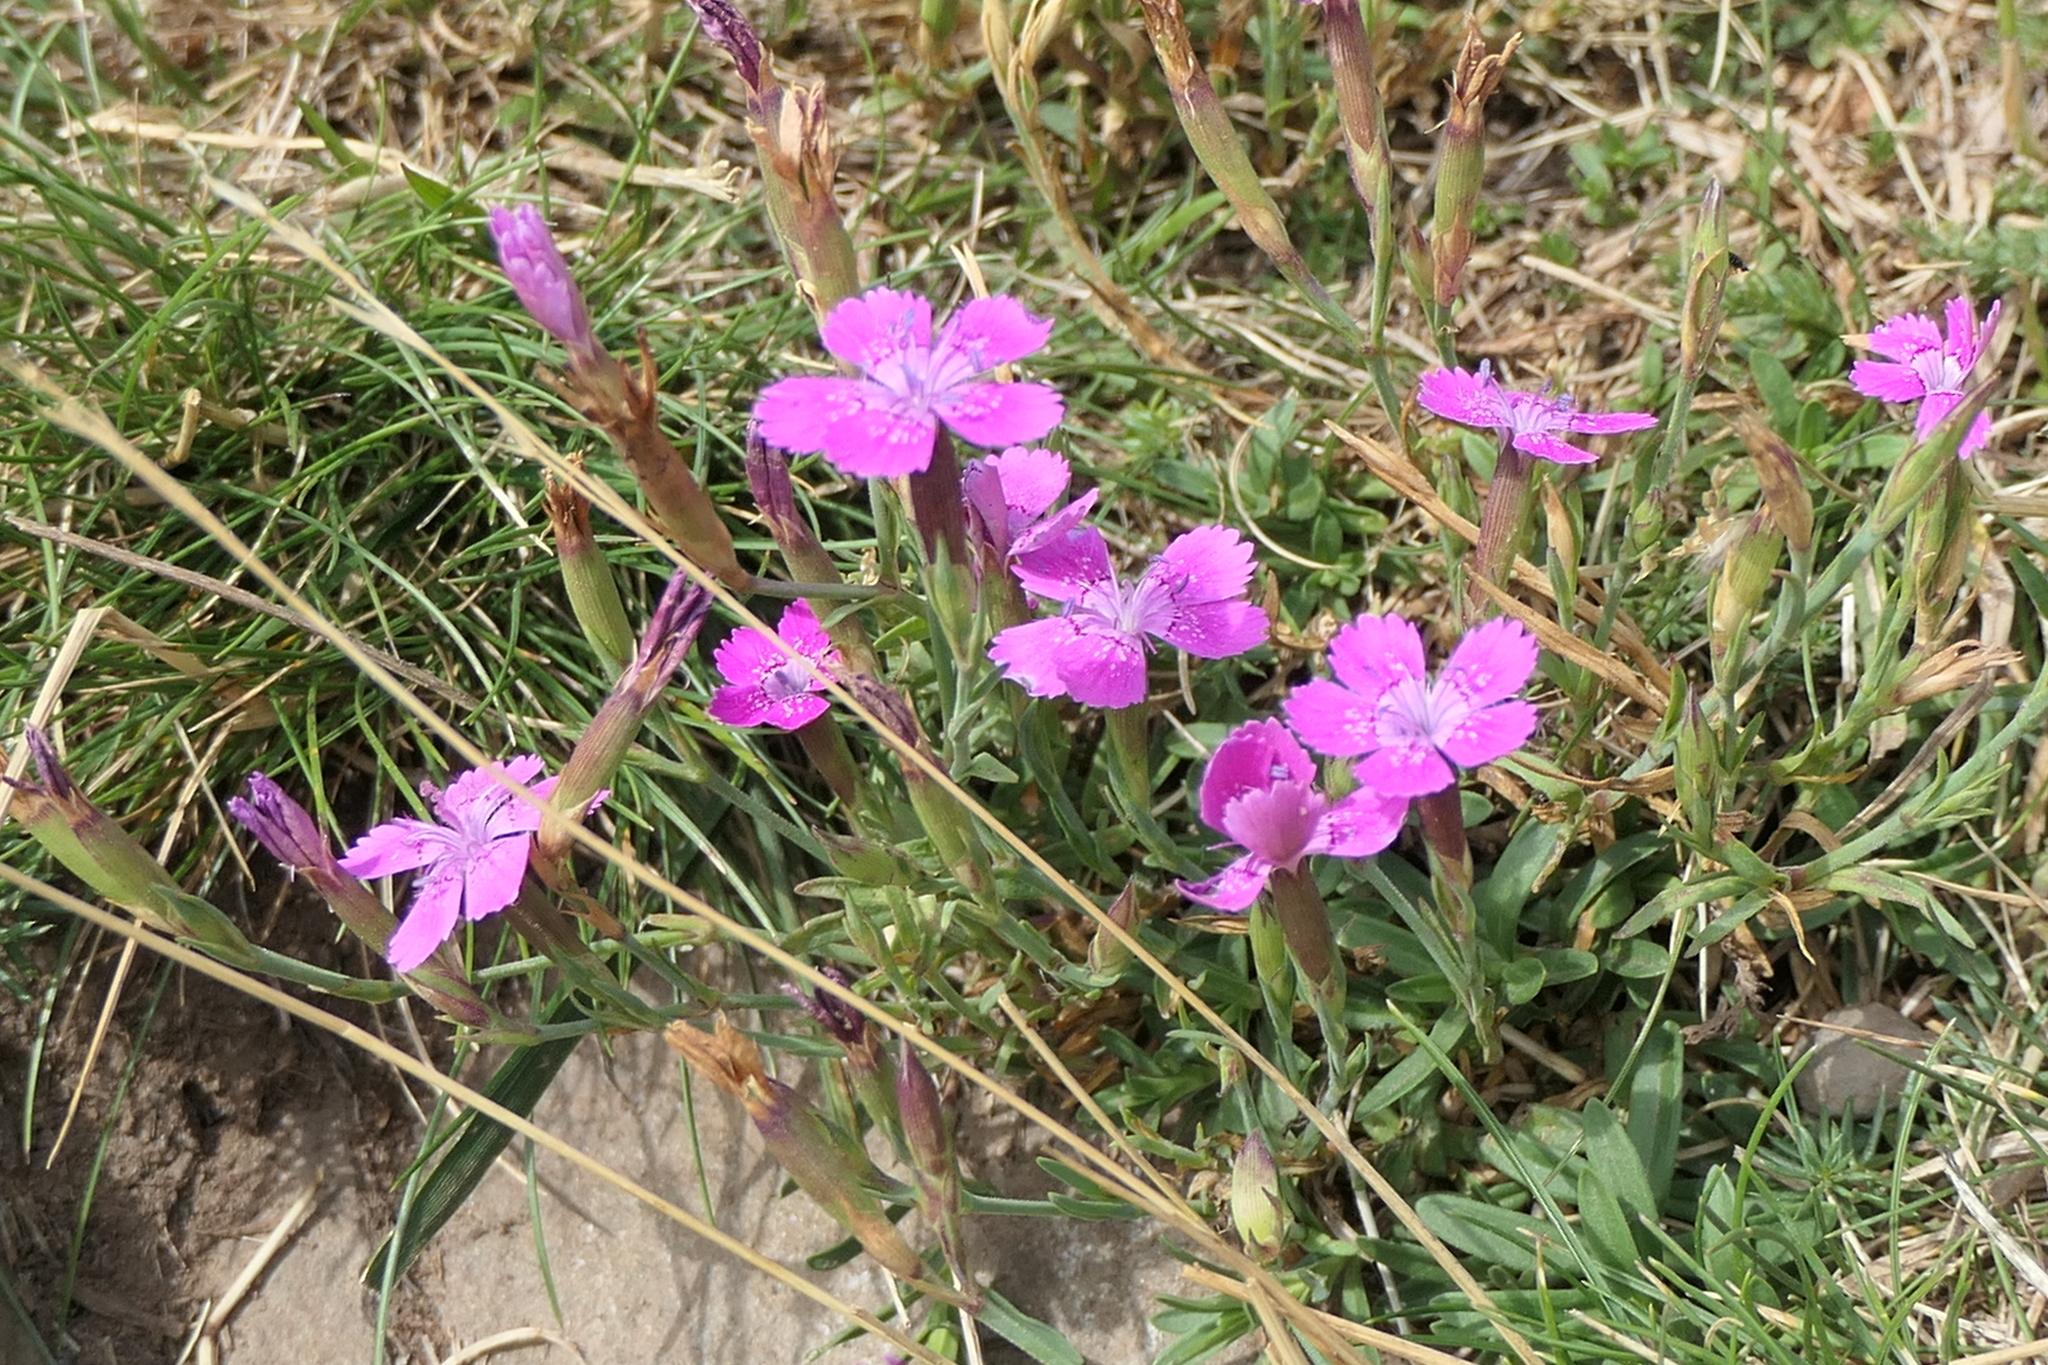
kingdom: Plantae
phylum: Tracheophyta
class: Magnoliopsida
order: Caryophyllales
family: Caryophyllaceae
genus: Dianthus
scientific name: Dianthus deltoides
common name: Maiden pink
